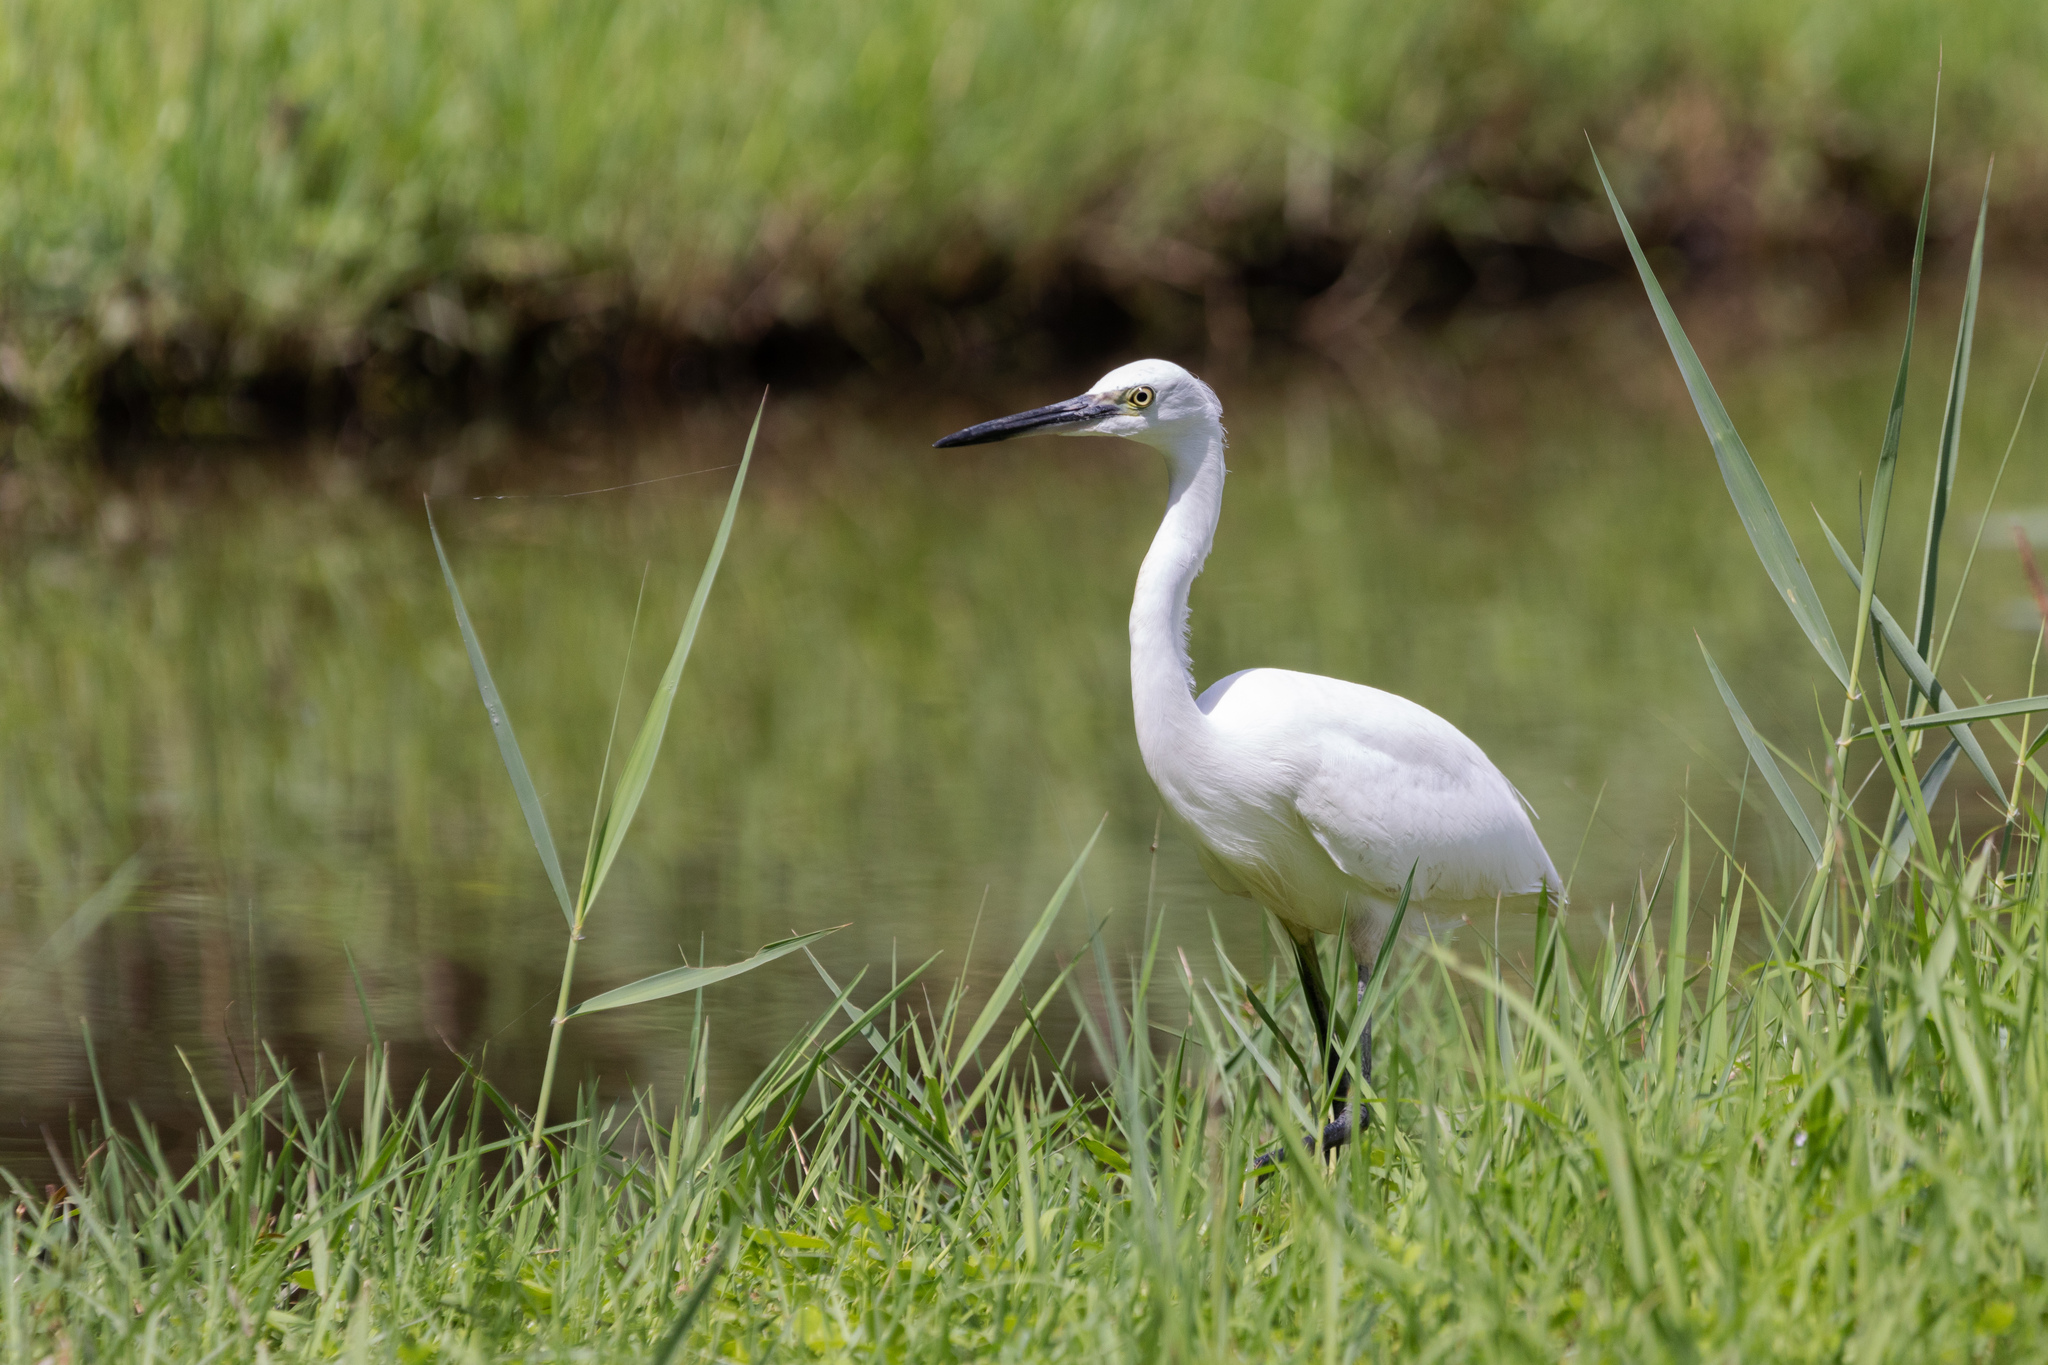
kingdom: Animalia
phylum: Chordata
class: Aves
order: Pelecaniformes
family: Ardeidae
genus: Egretta
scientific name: Egretta garzetta
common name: Little egret
